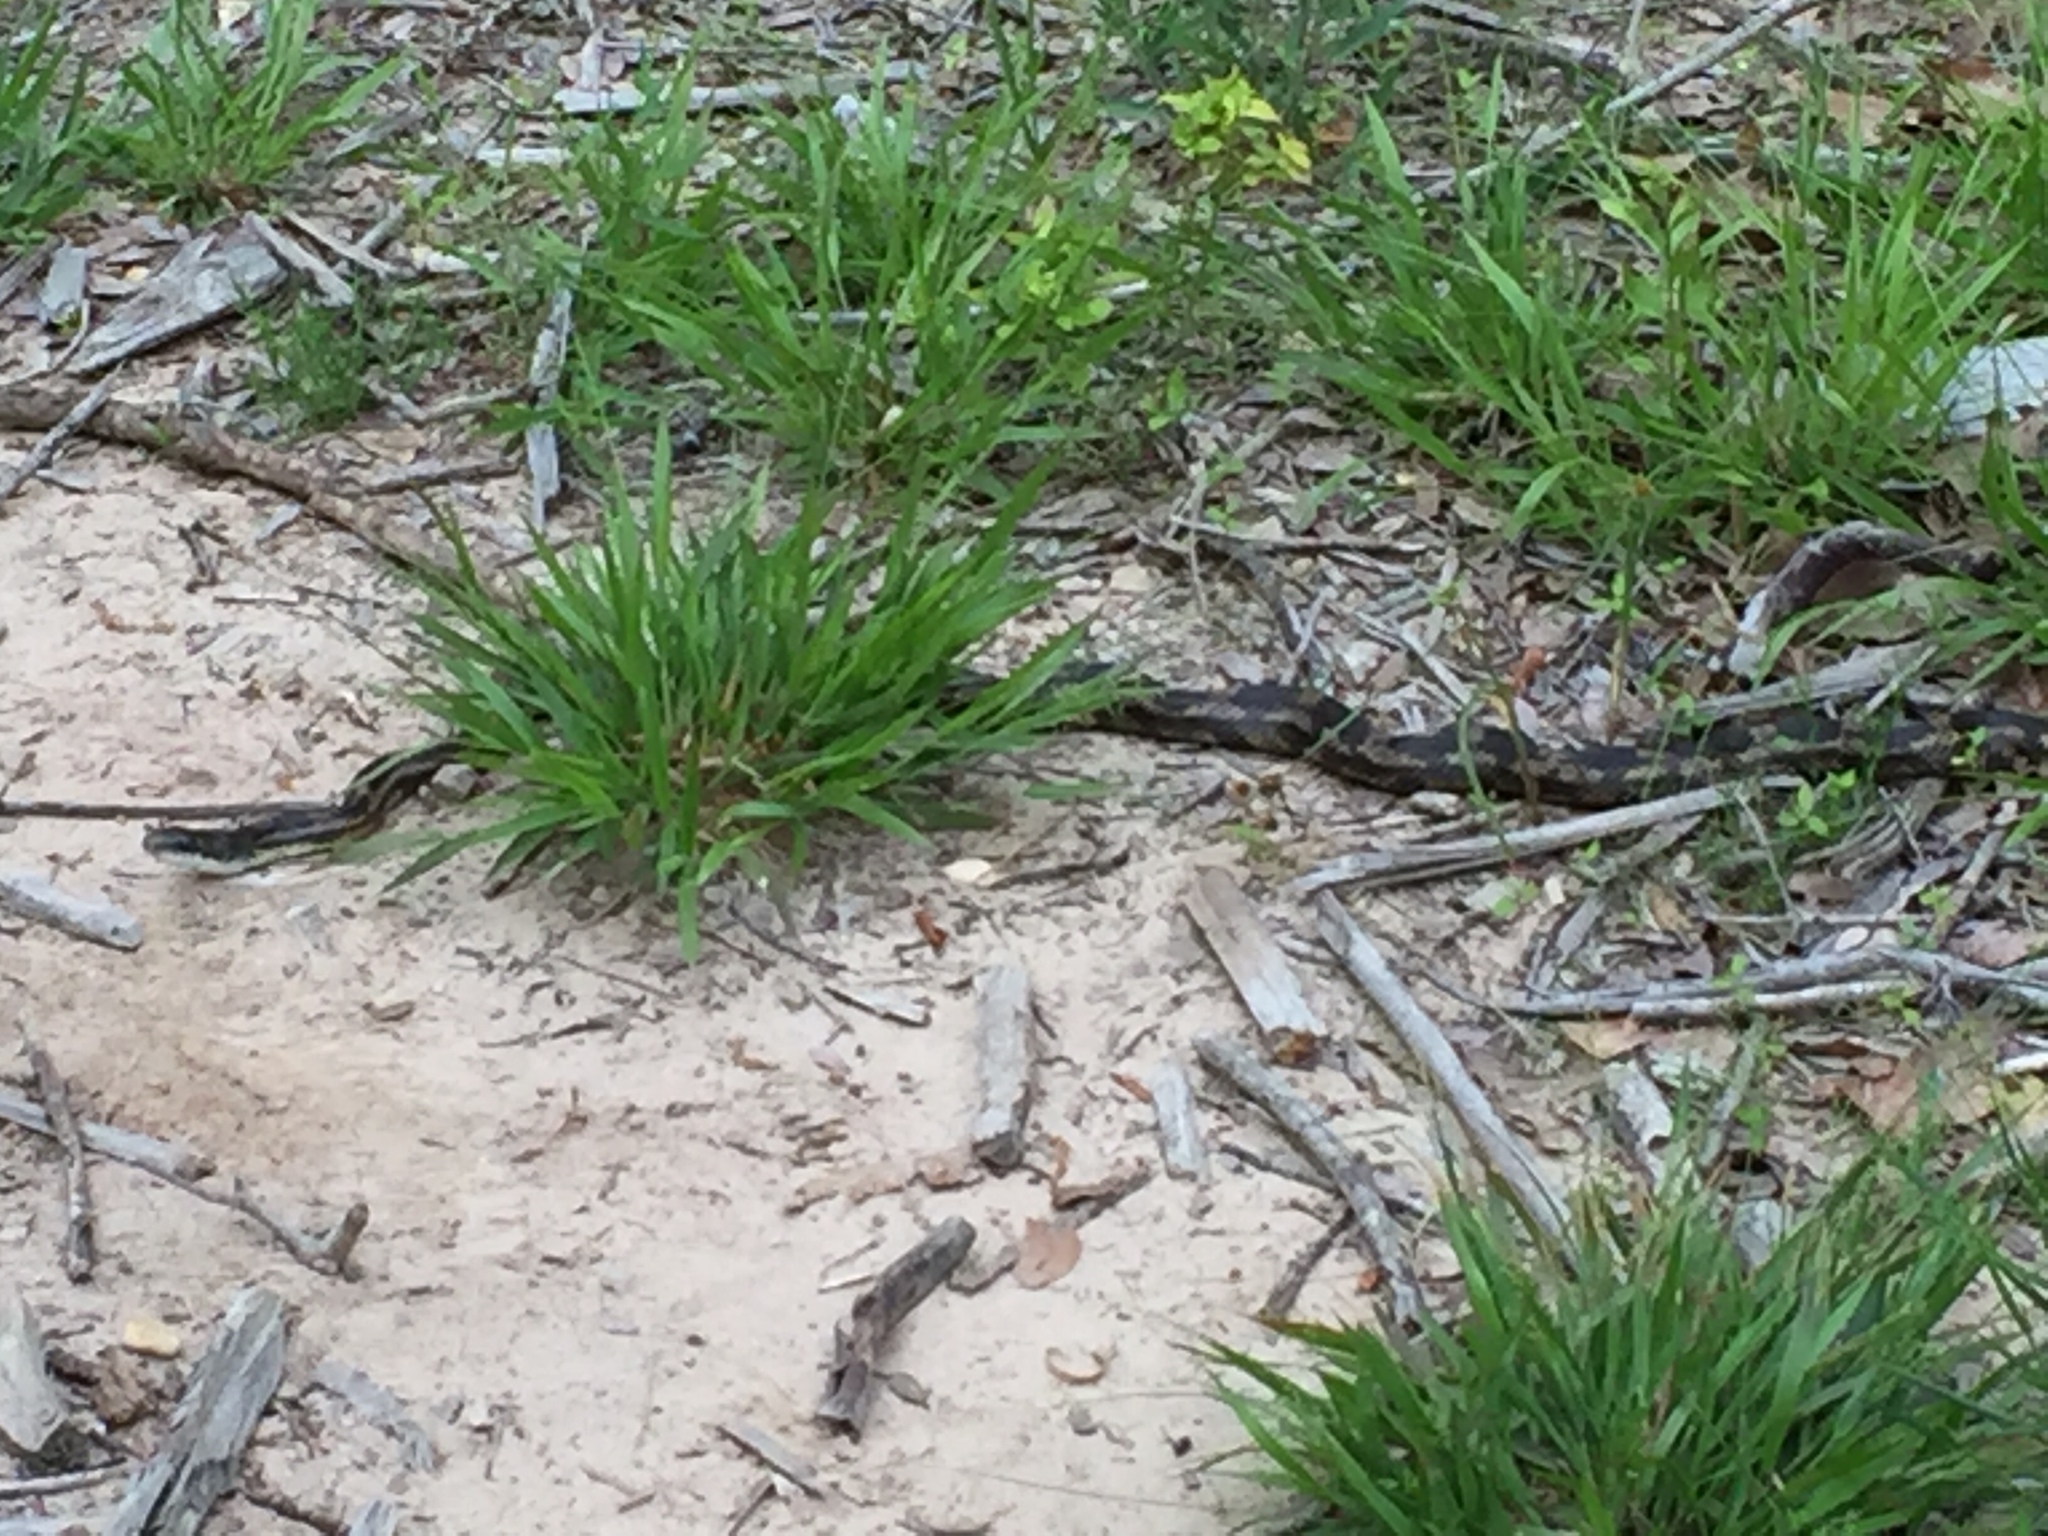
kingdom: Animalia
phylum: Chordata
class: Squamata
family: Colubridae
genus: Pantherophis
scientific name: Pantherophis obsoletus
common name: Black rat snake
